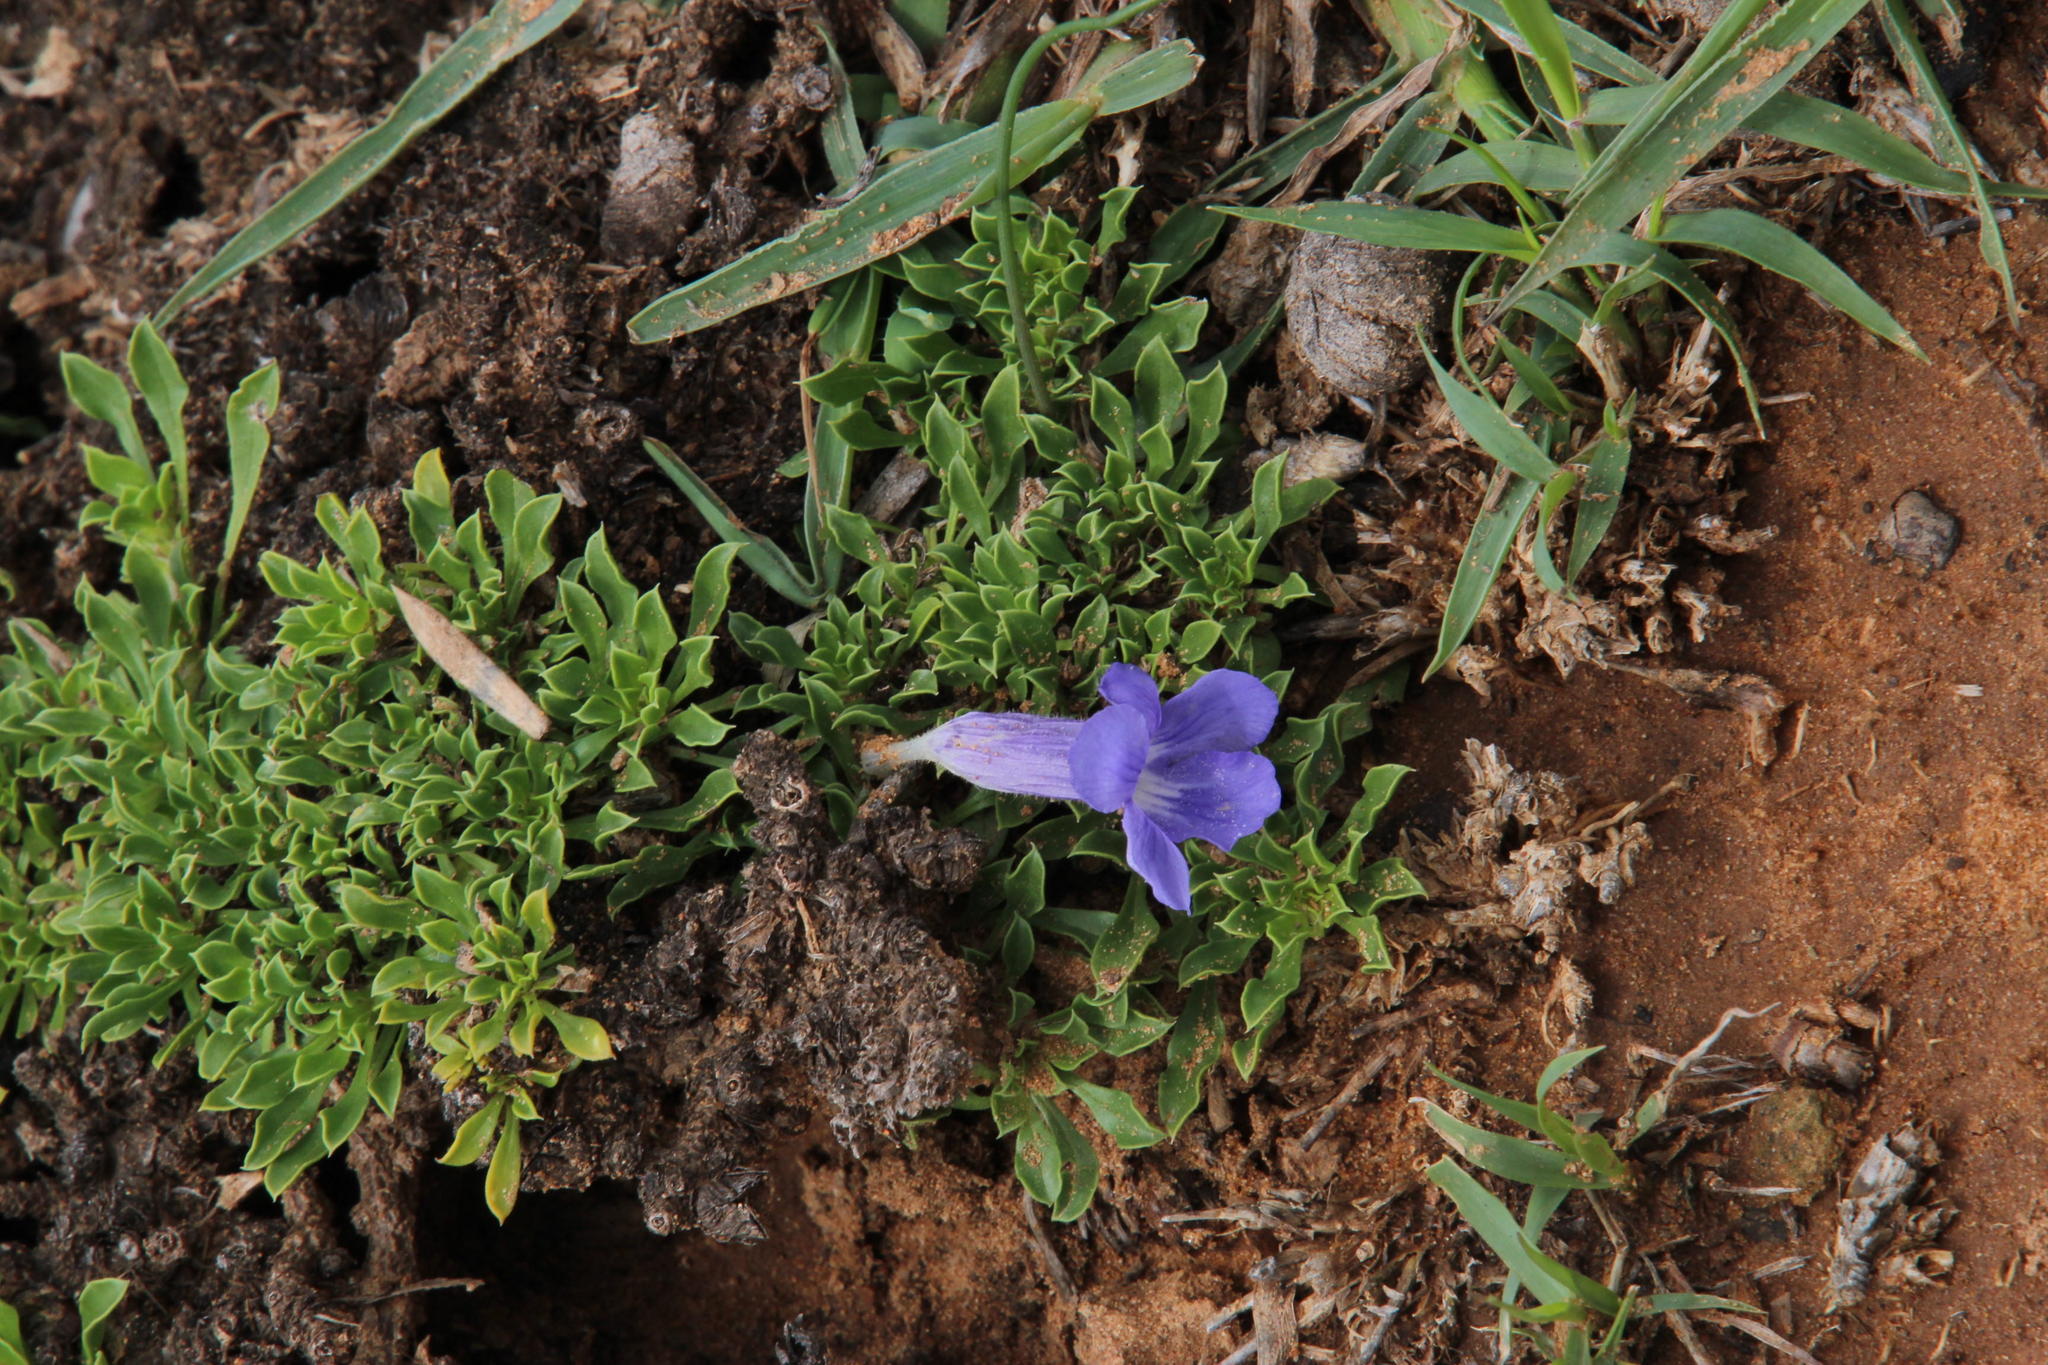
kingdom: Plantae
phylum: Tracheophyta
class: Magnoliopsida
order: Lamiales
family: Scrophulariaceae
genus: Aptosimum
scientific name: Aptosimum procumbens
